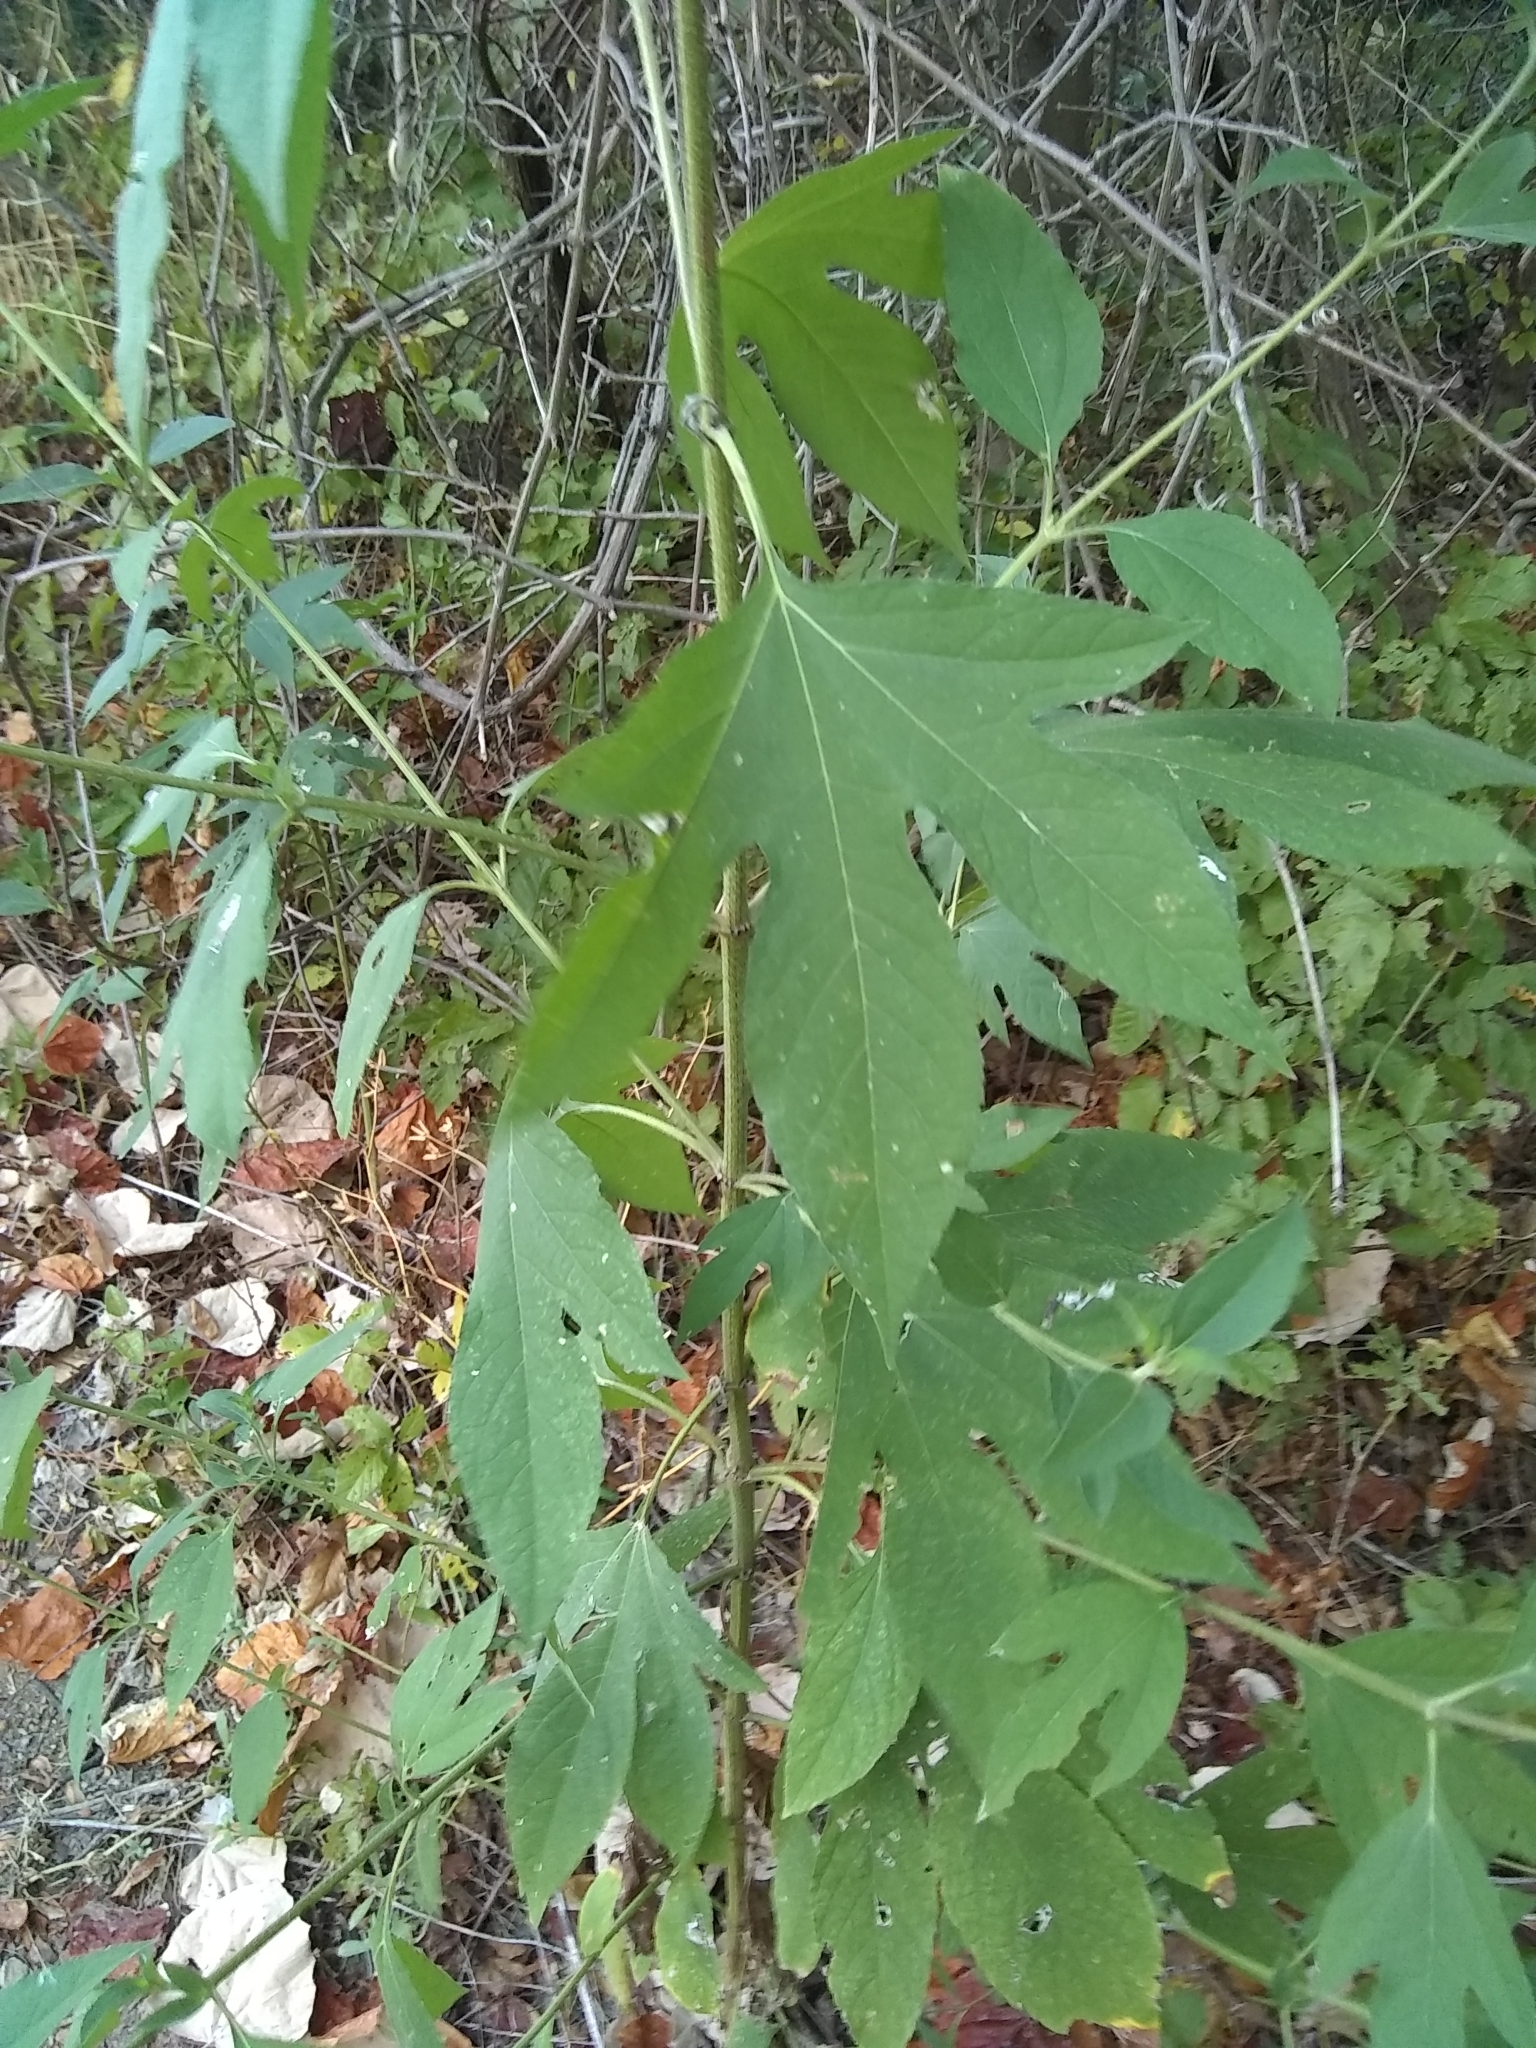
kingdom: Plantae
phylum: Tracheophyta
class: Magnoliopsida
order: Asterales
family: Asteraceae
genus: Ambrosia
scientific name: Ambrosia trifida
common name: Giant ragweed
